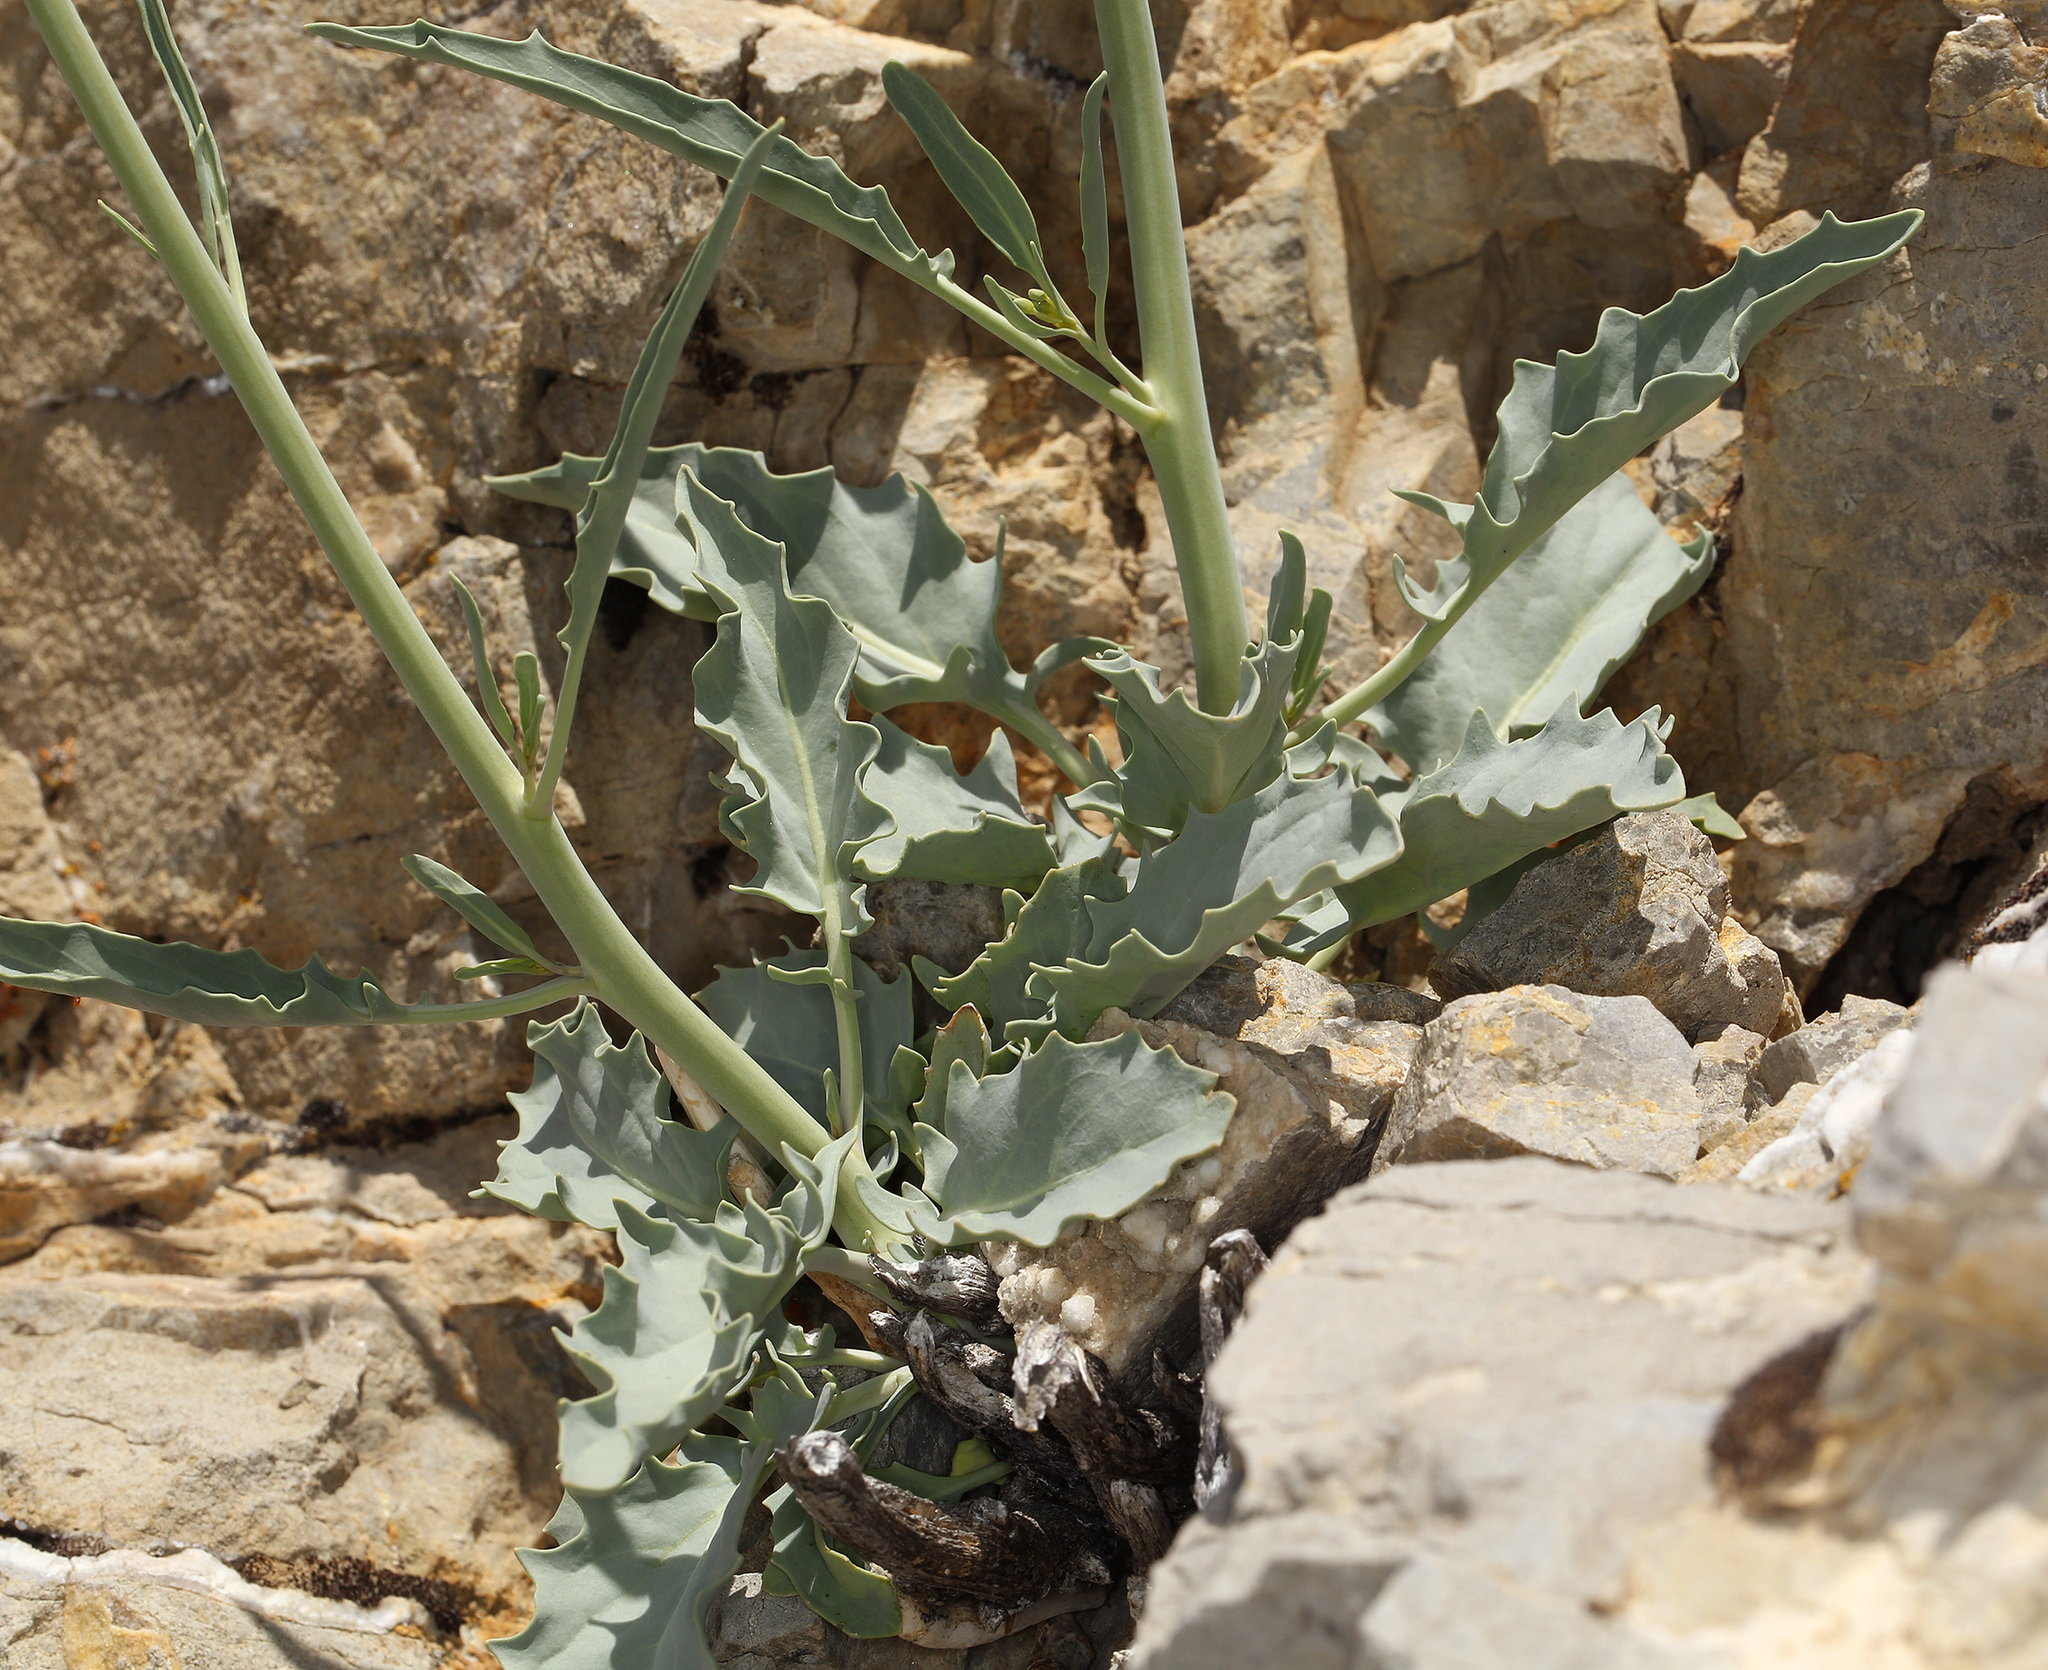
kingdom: Plantae
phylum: Tracheophyta
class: Magnoliopsida
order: Brassicales
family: Brassicaceae
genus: Streptanthus
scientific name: Streptanthus glaucus
